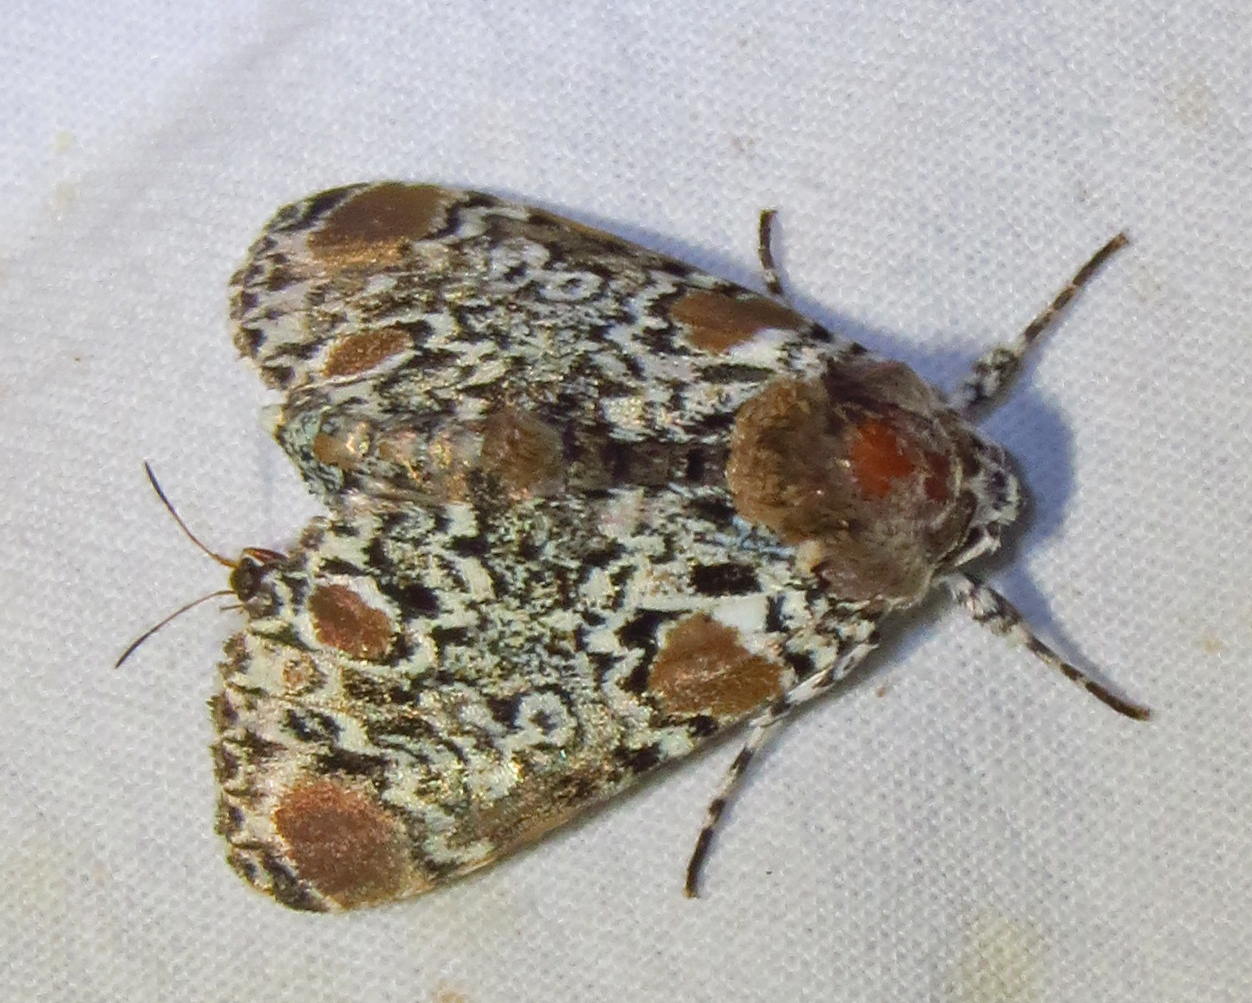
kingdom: Animalia
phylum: Arthropoda
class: Insecta
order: Lepidoptera
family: Noctuidae
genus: Harrisimemna
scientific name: Harrisimemna trisignata
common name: Harris threespot
